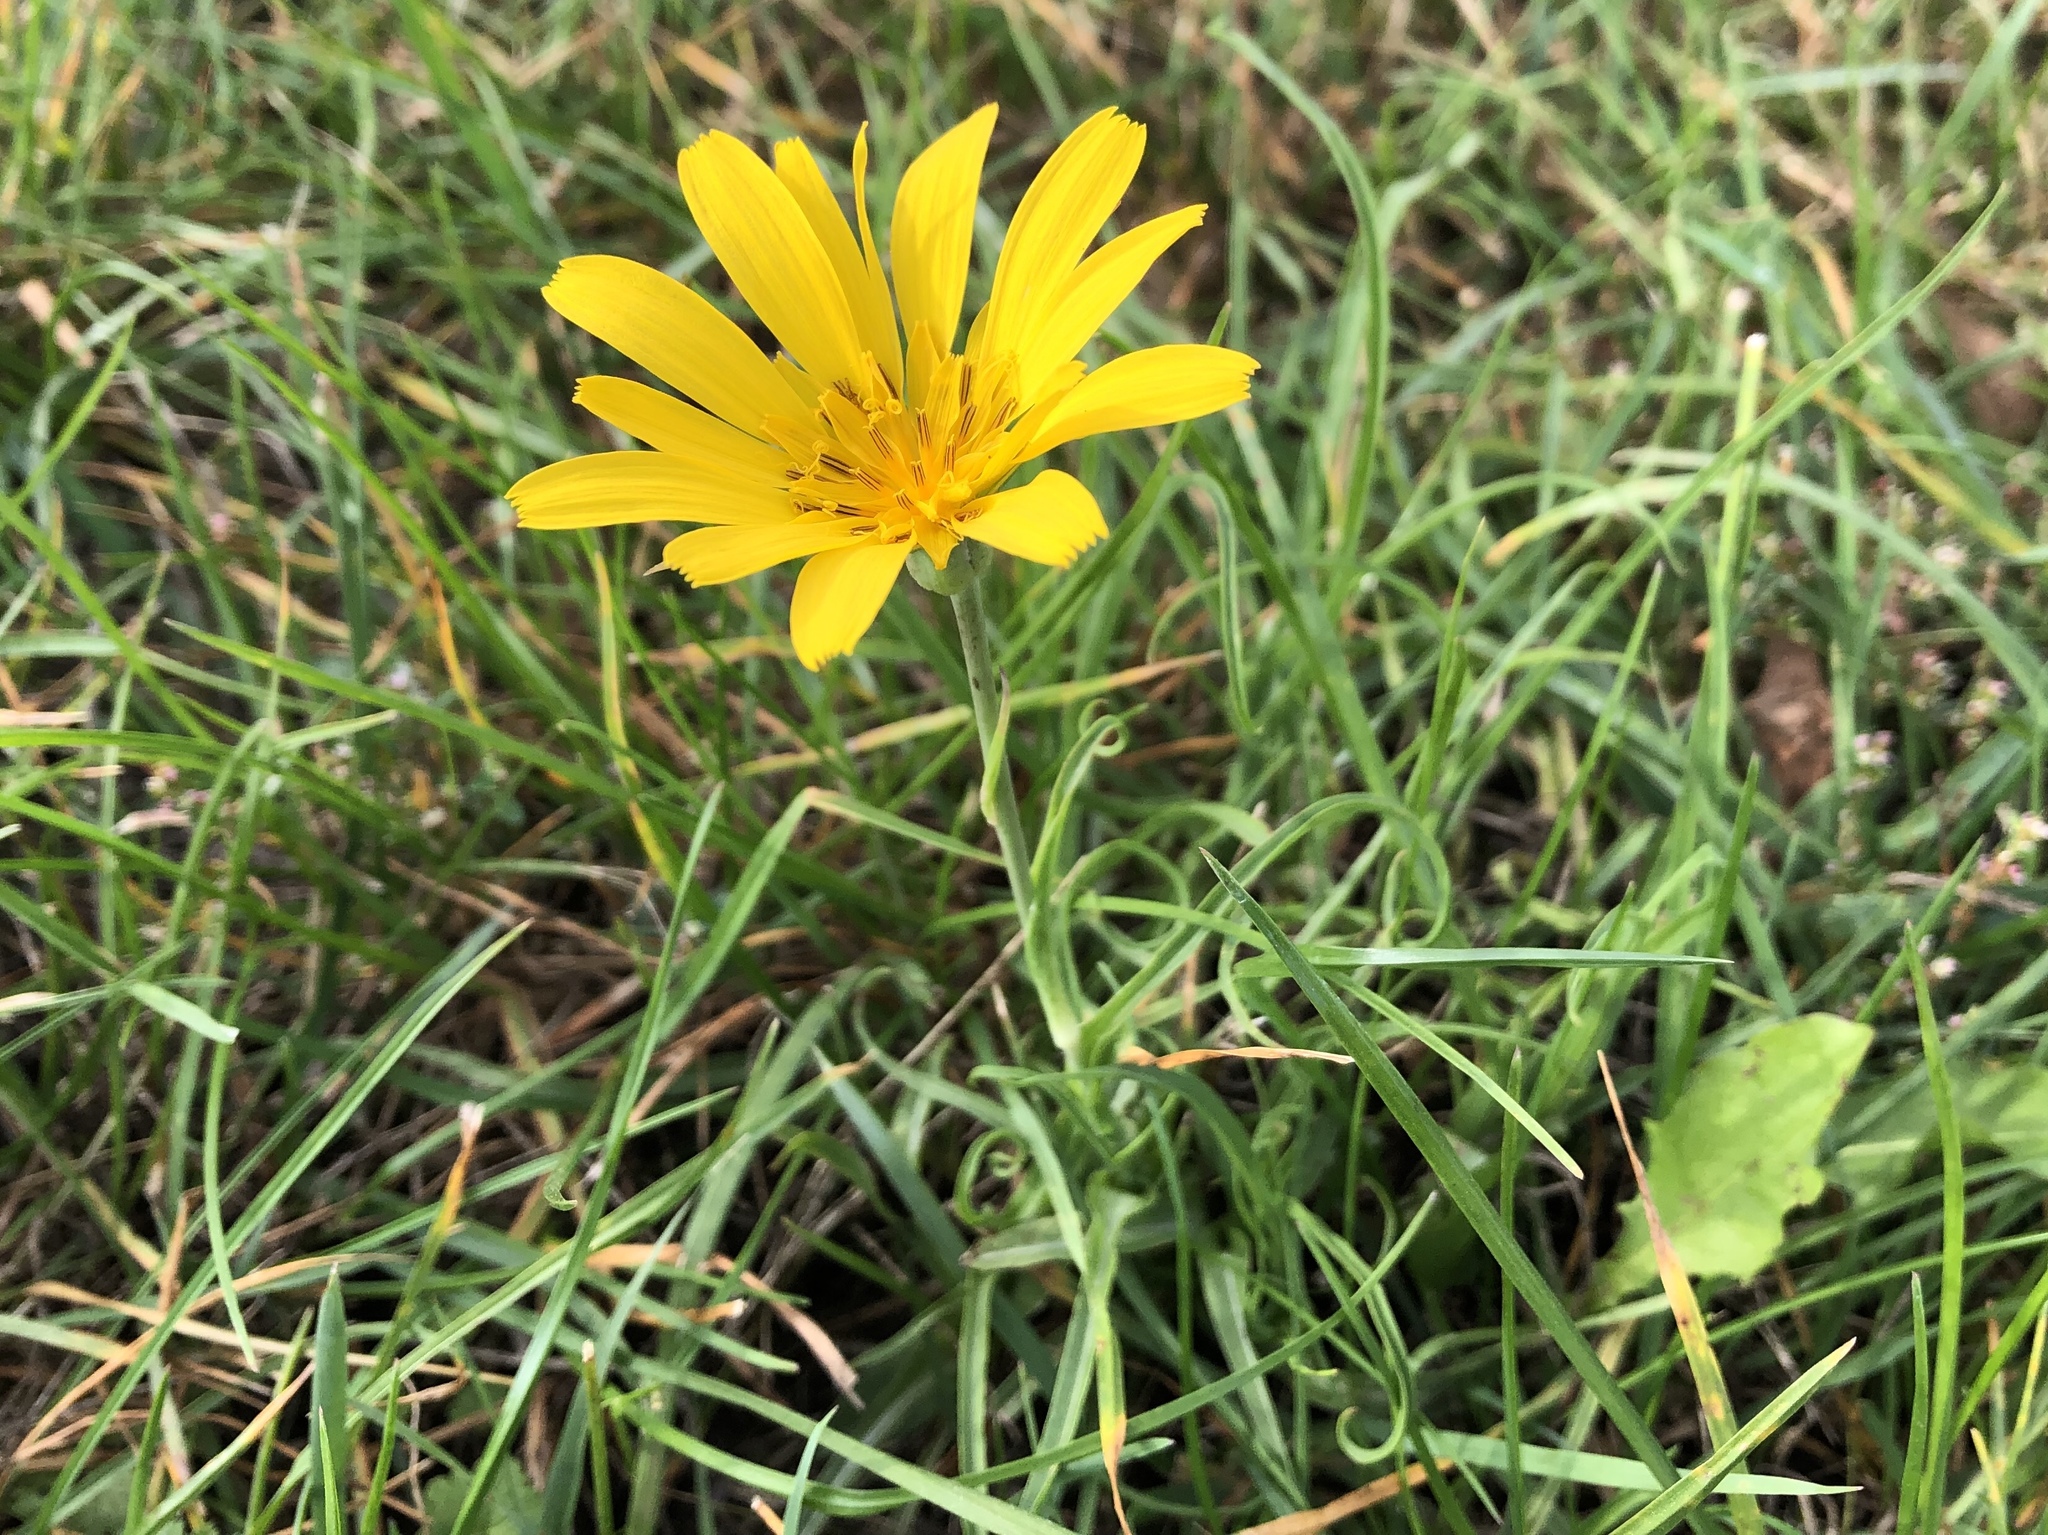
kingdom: Plantae
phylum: Tracheophyta
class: Magnoliopsida
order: Asterales
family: Asteraceae
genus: Tragopogon
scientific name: Tragopogon orientalis
